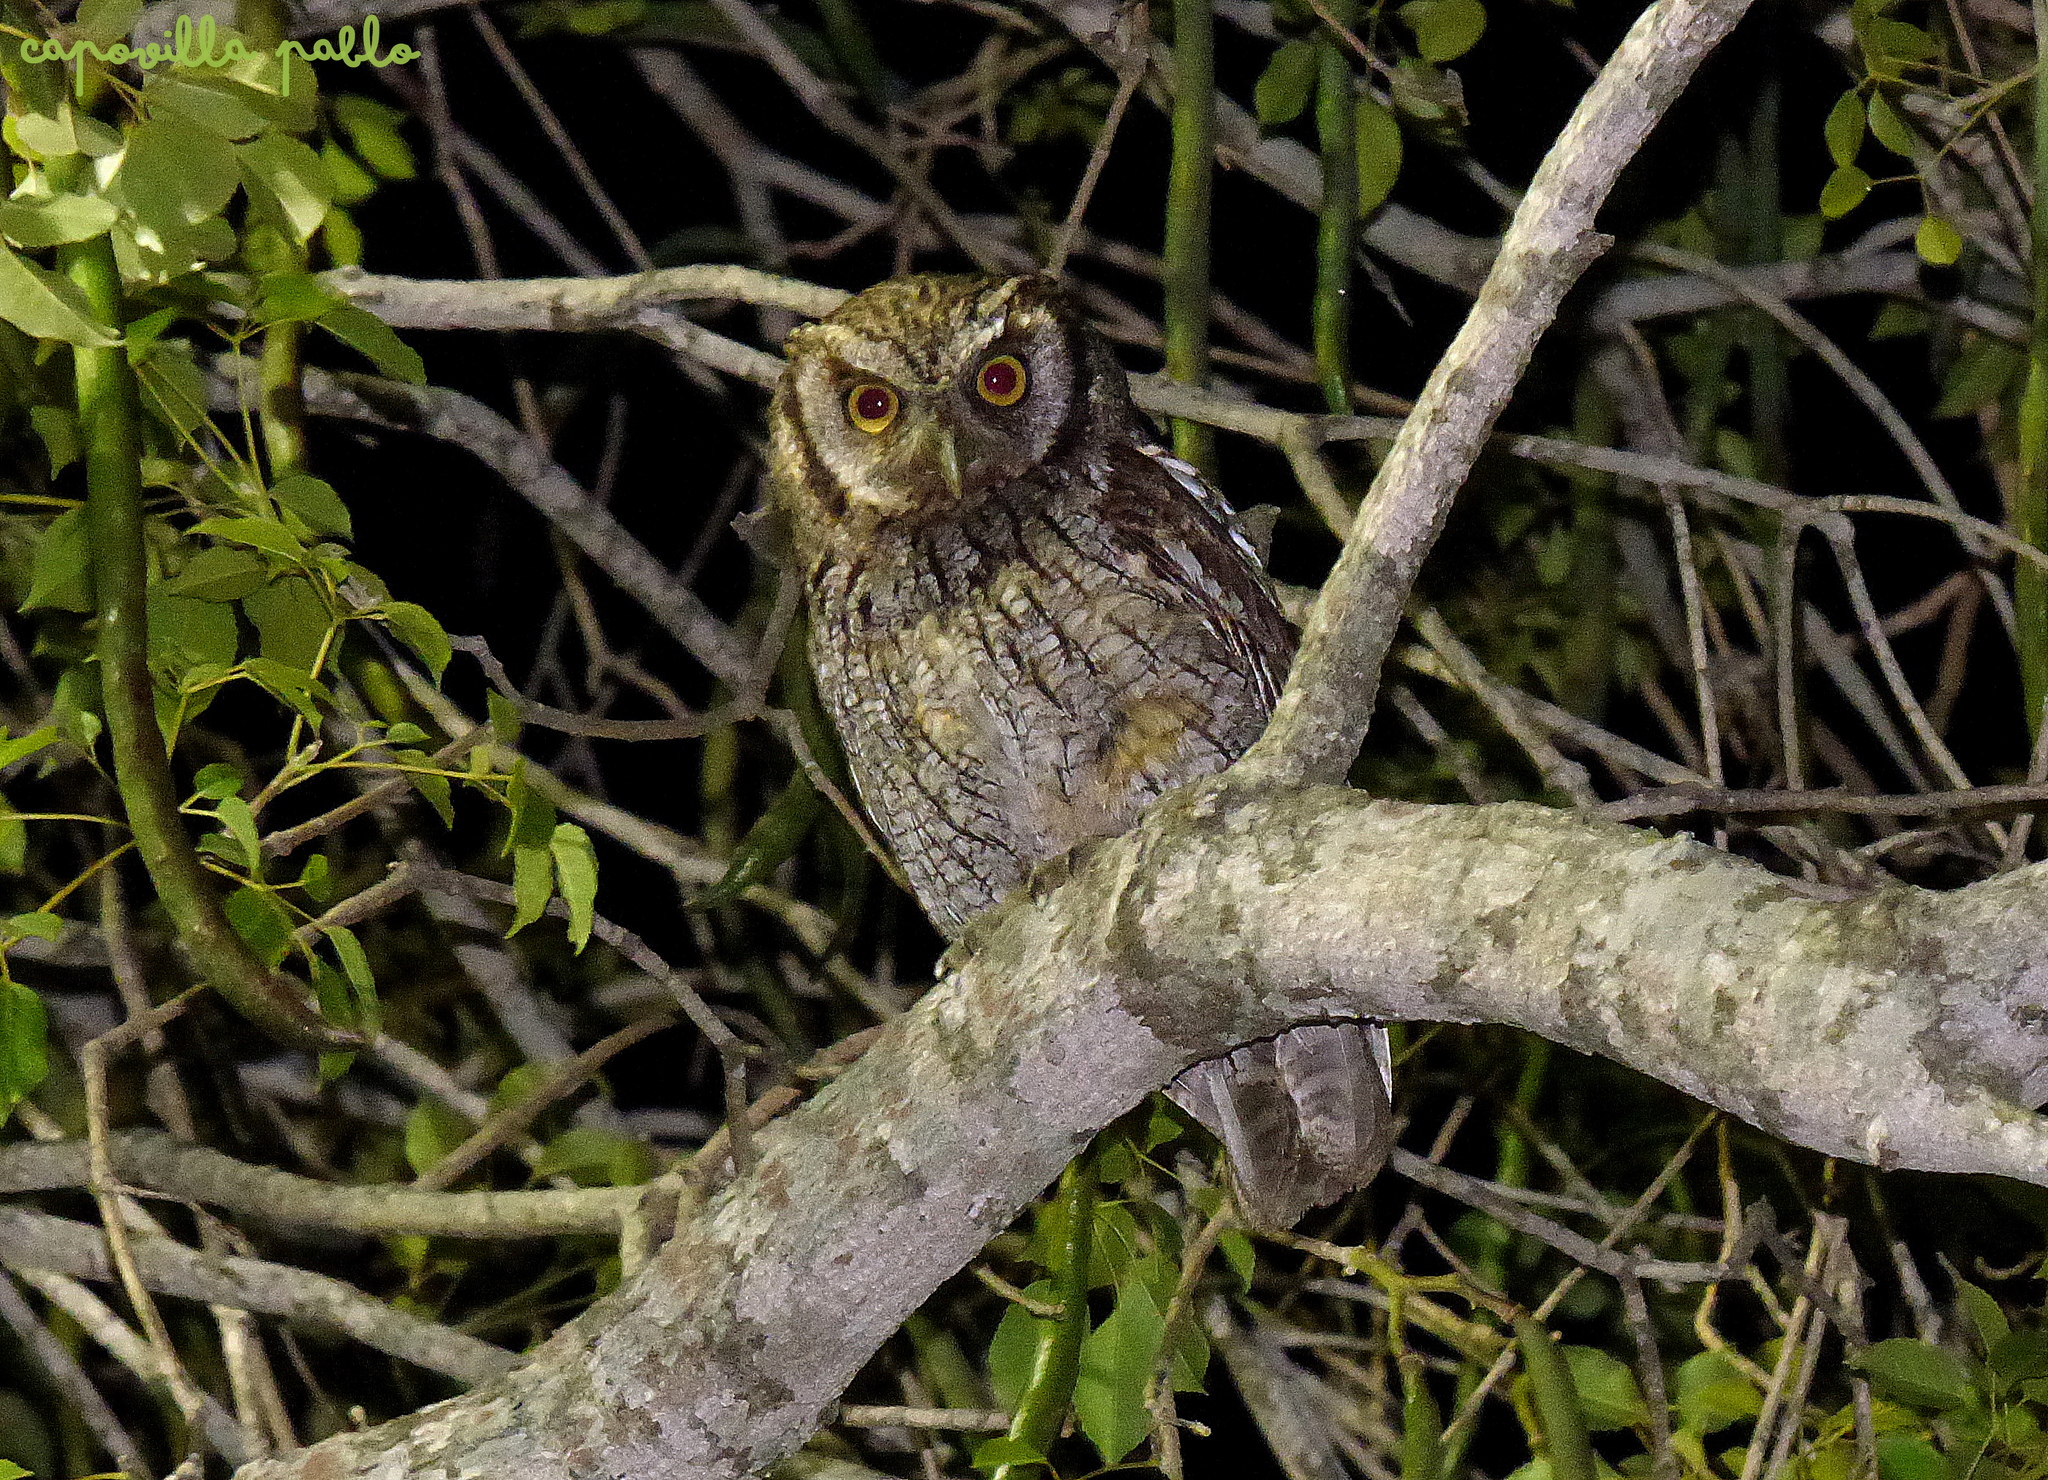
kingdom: Animalia
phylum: Chordata
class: Aves
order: Strigiformes
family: Strigidae
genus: Megascops
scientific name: Megascops choliba
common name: Tropical screech-owl
